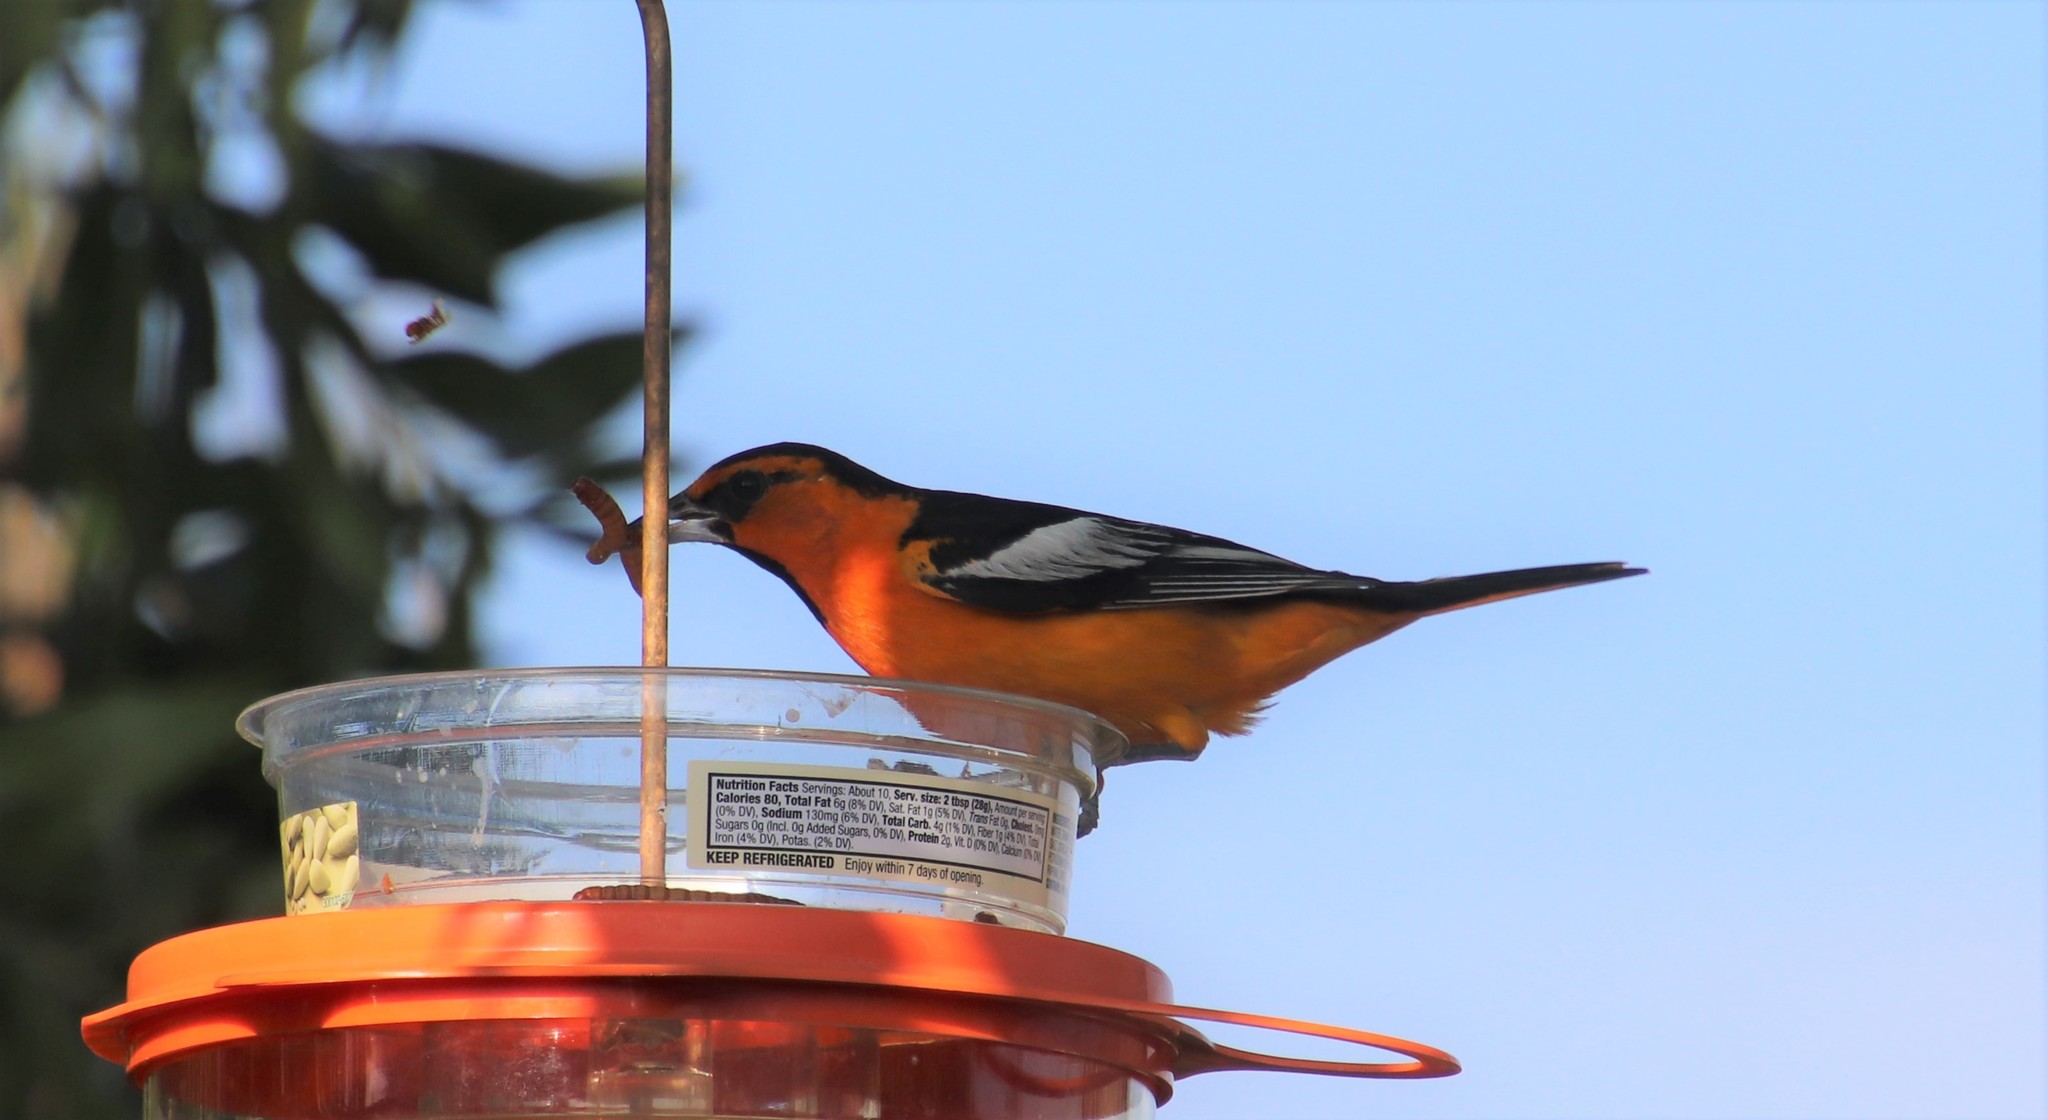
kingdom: Animalia
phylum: Chordata
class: Aves
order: Passeriformes
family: Icteridae
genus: Icterus
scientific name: Icterus bullockii
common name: Bullock's oriole
